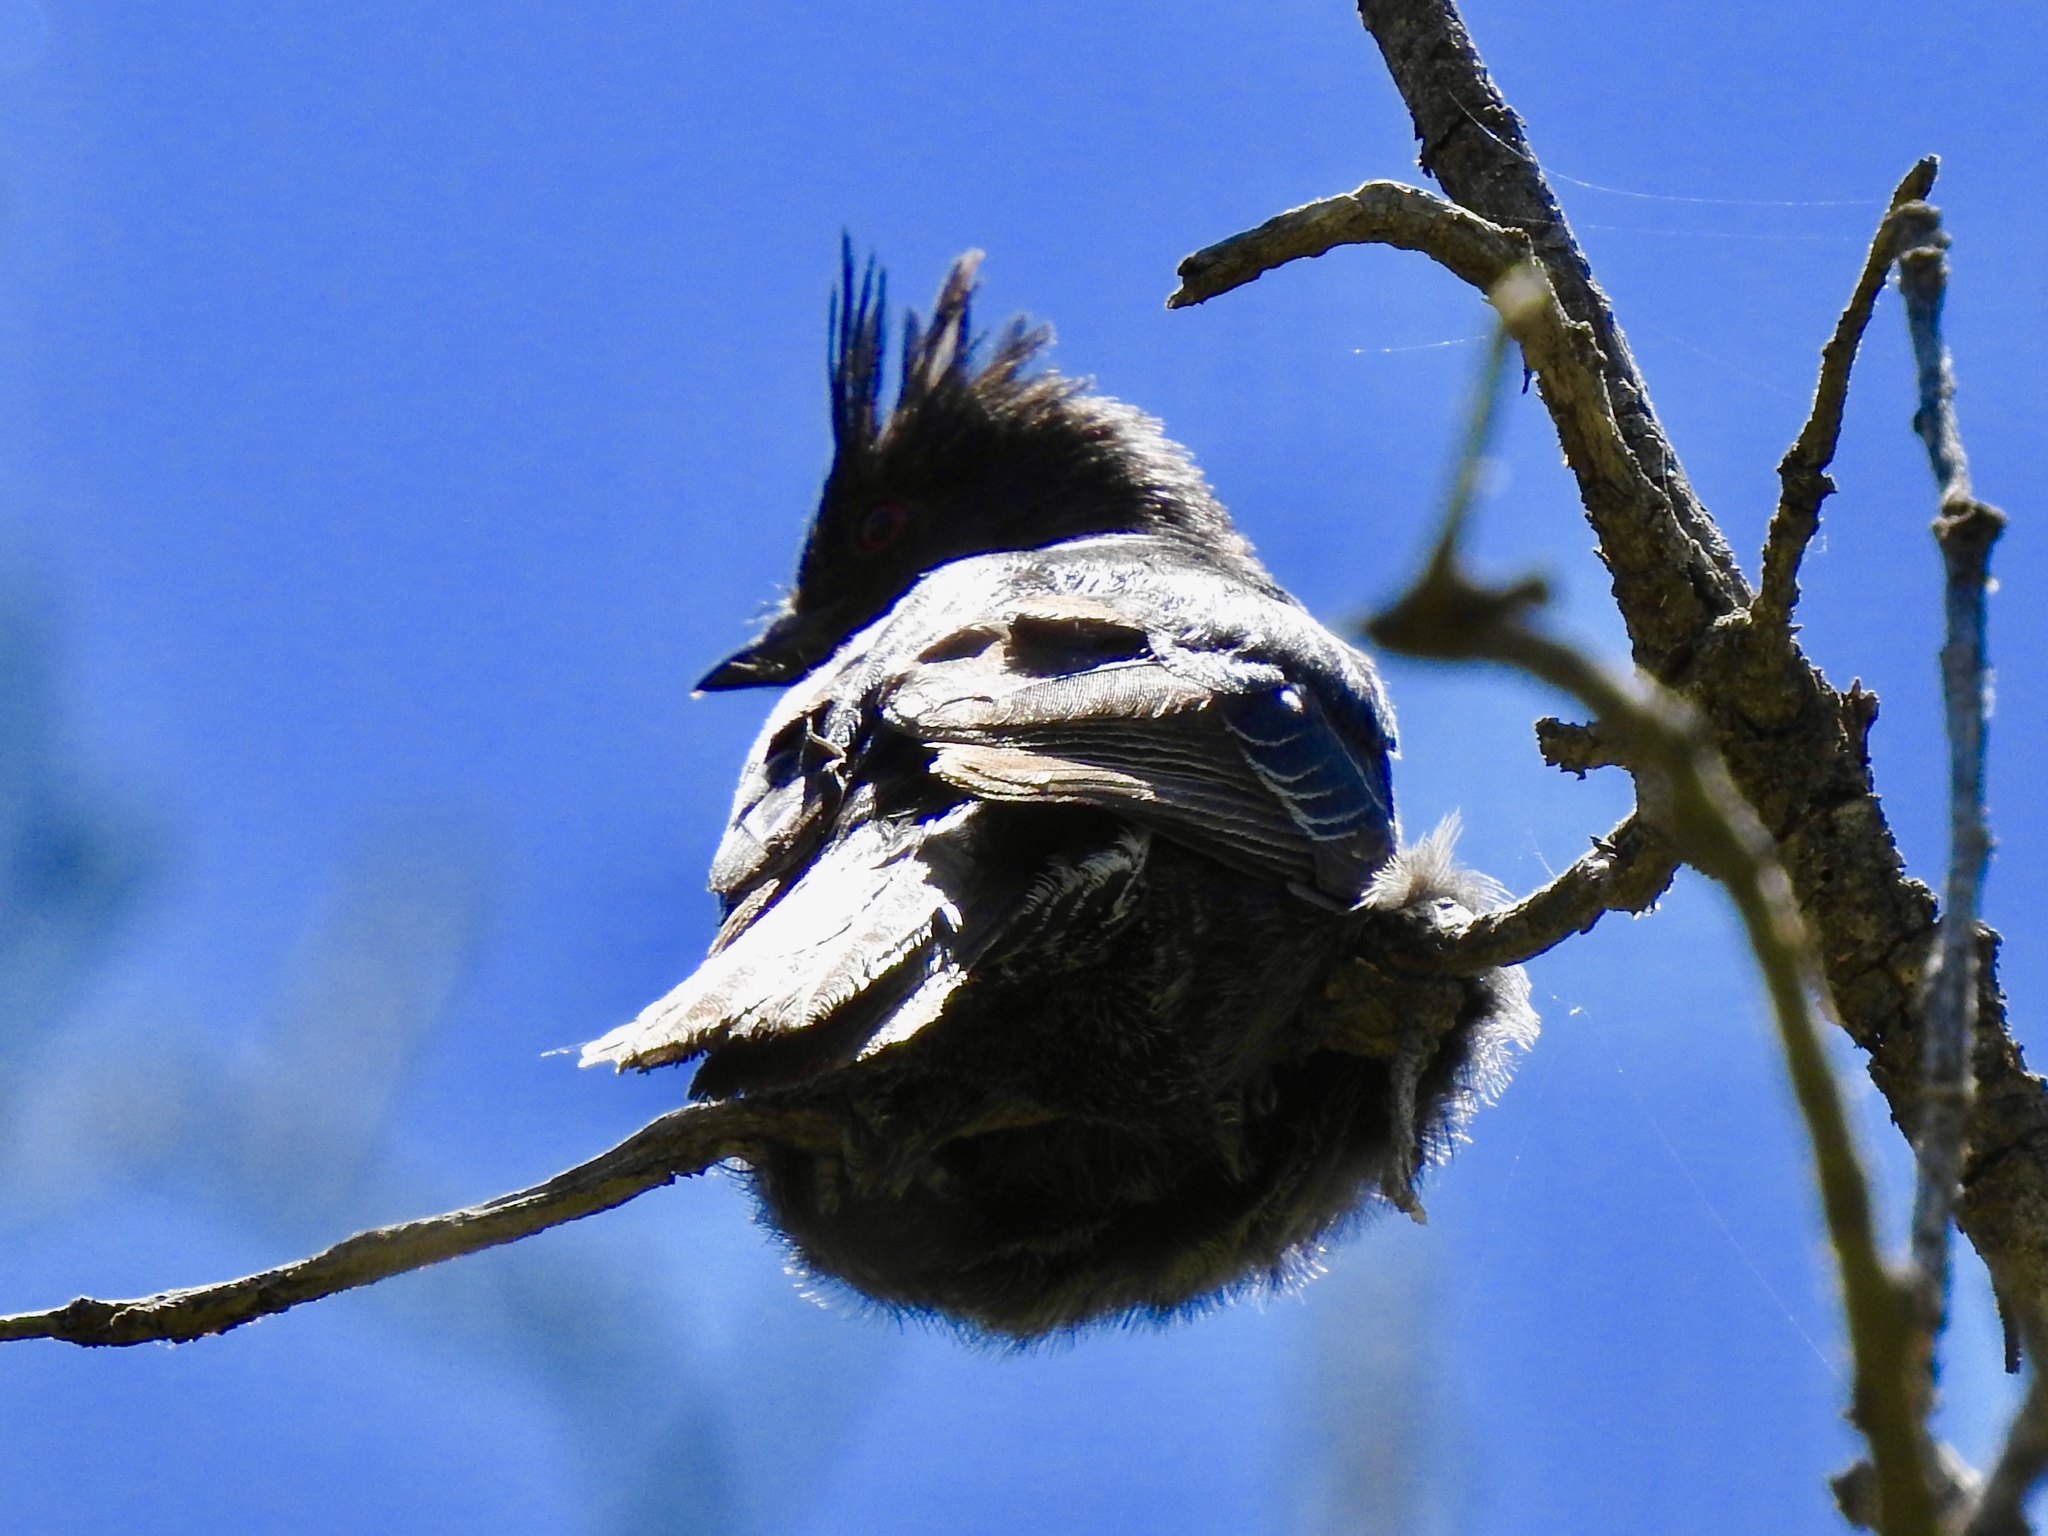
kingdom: Animalia
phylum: Chordata
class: Aves
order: Passeriformes
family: Ptilogonatidae
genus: Phainopepla
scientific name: Phainopepla nitens
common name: Phainopepla
